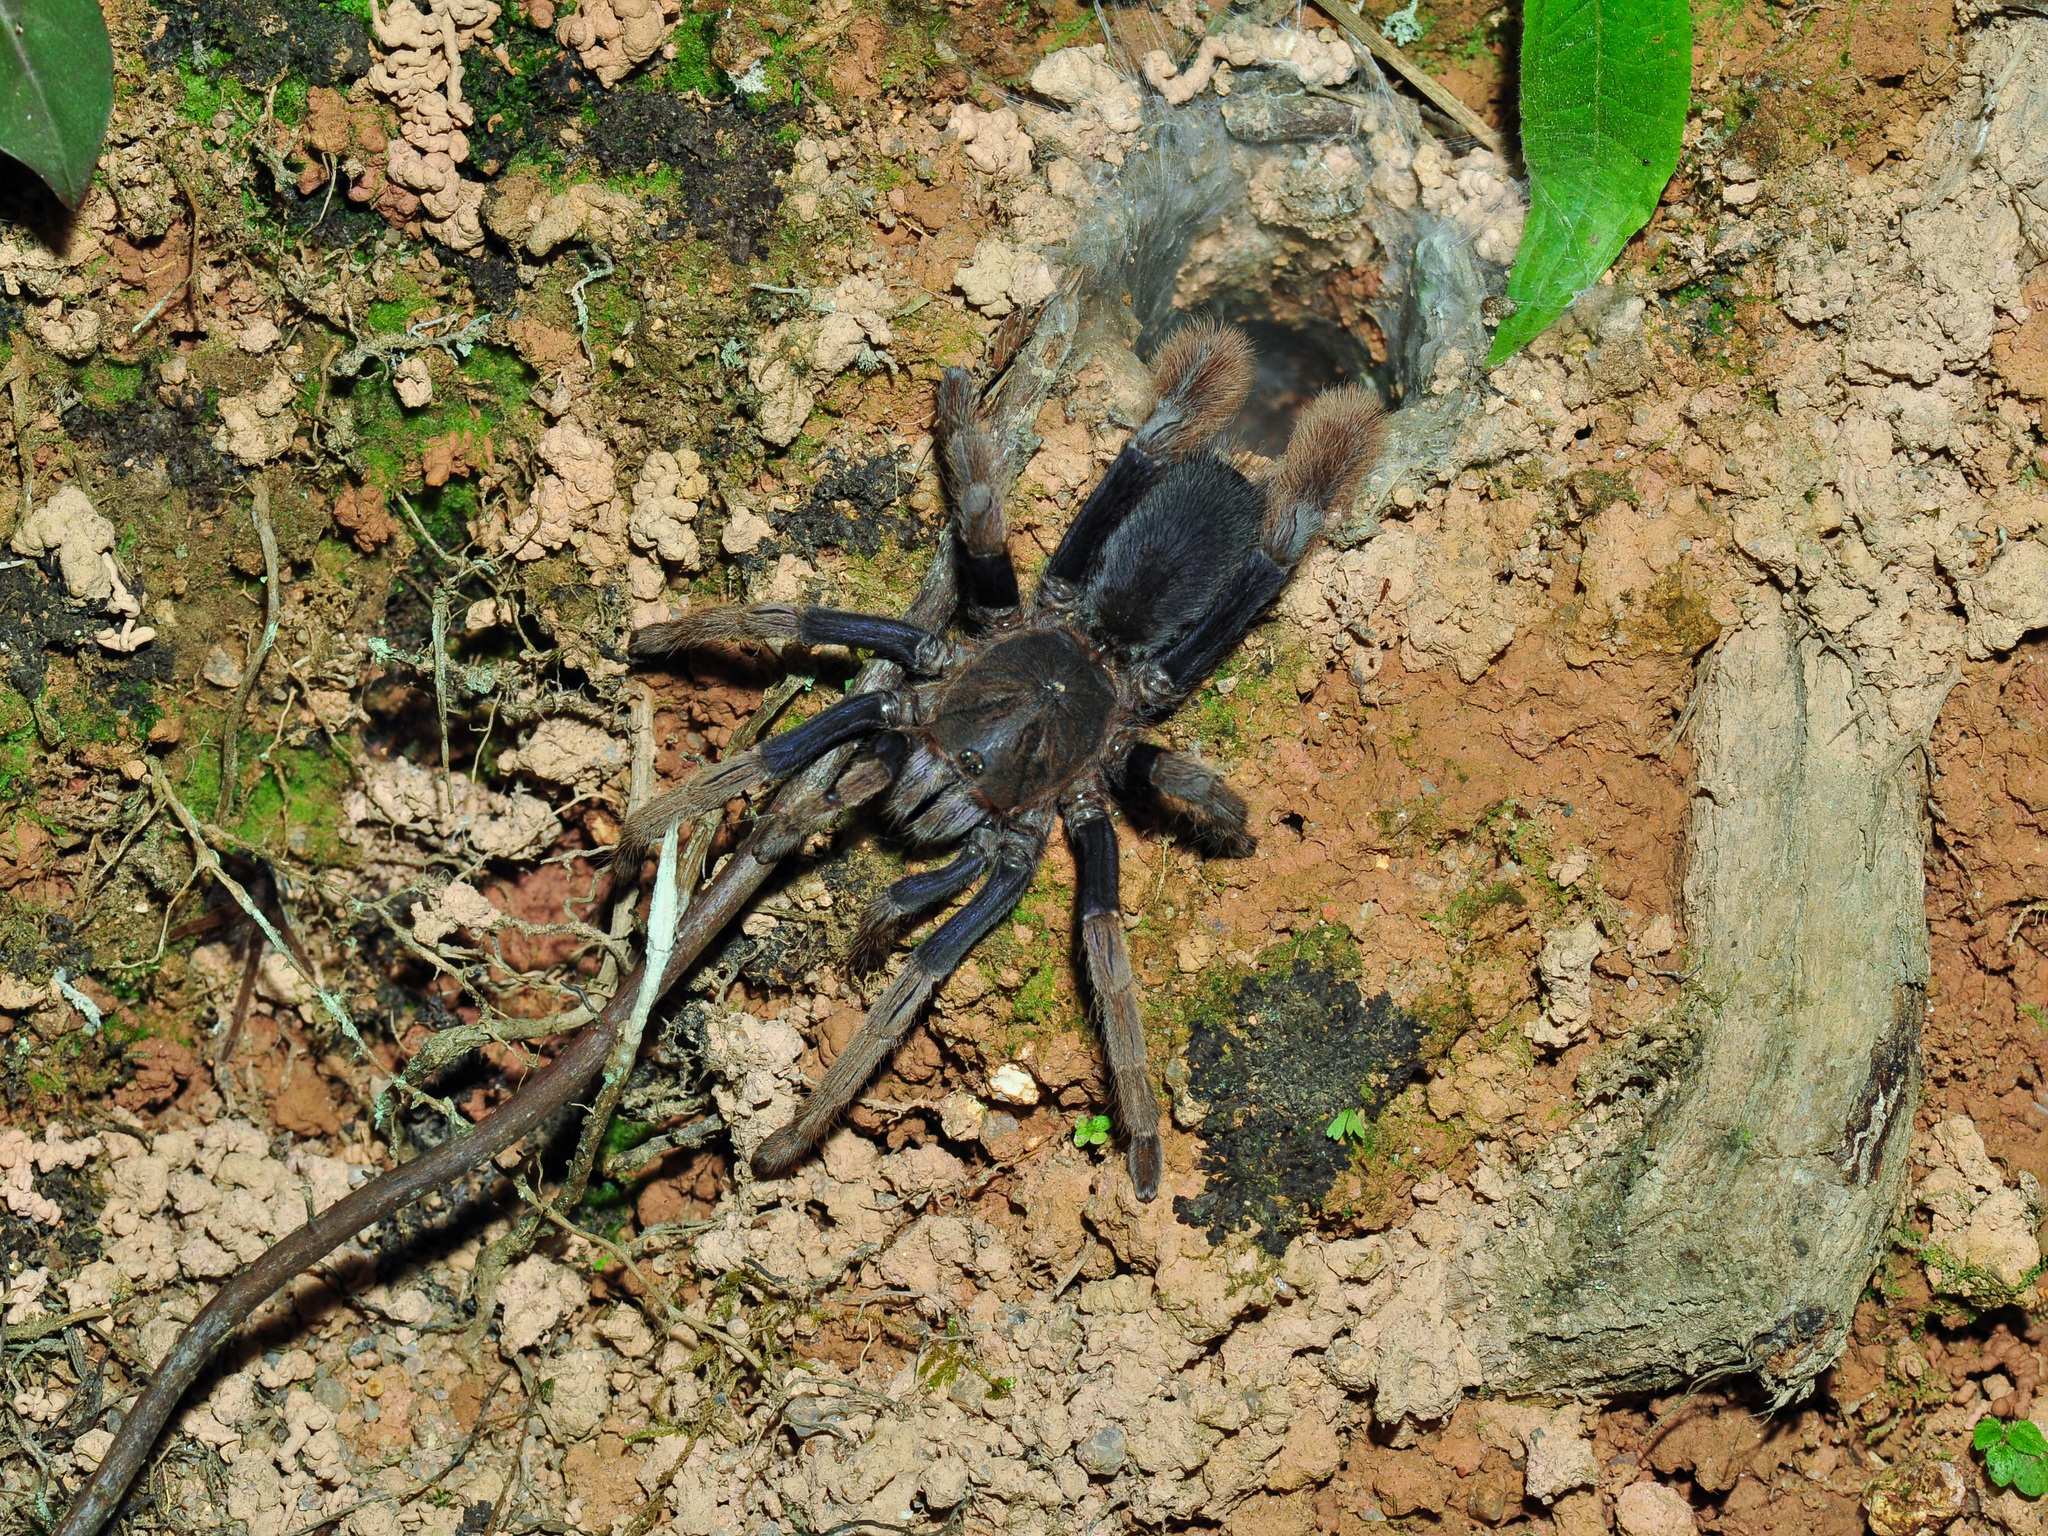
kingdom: Animalia
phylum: Arthropoda
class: Arachnida
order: Araneae
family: Theraphosidae
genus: Coremiocnemis
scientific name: Coremiocnemis hoggi
